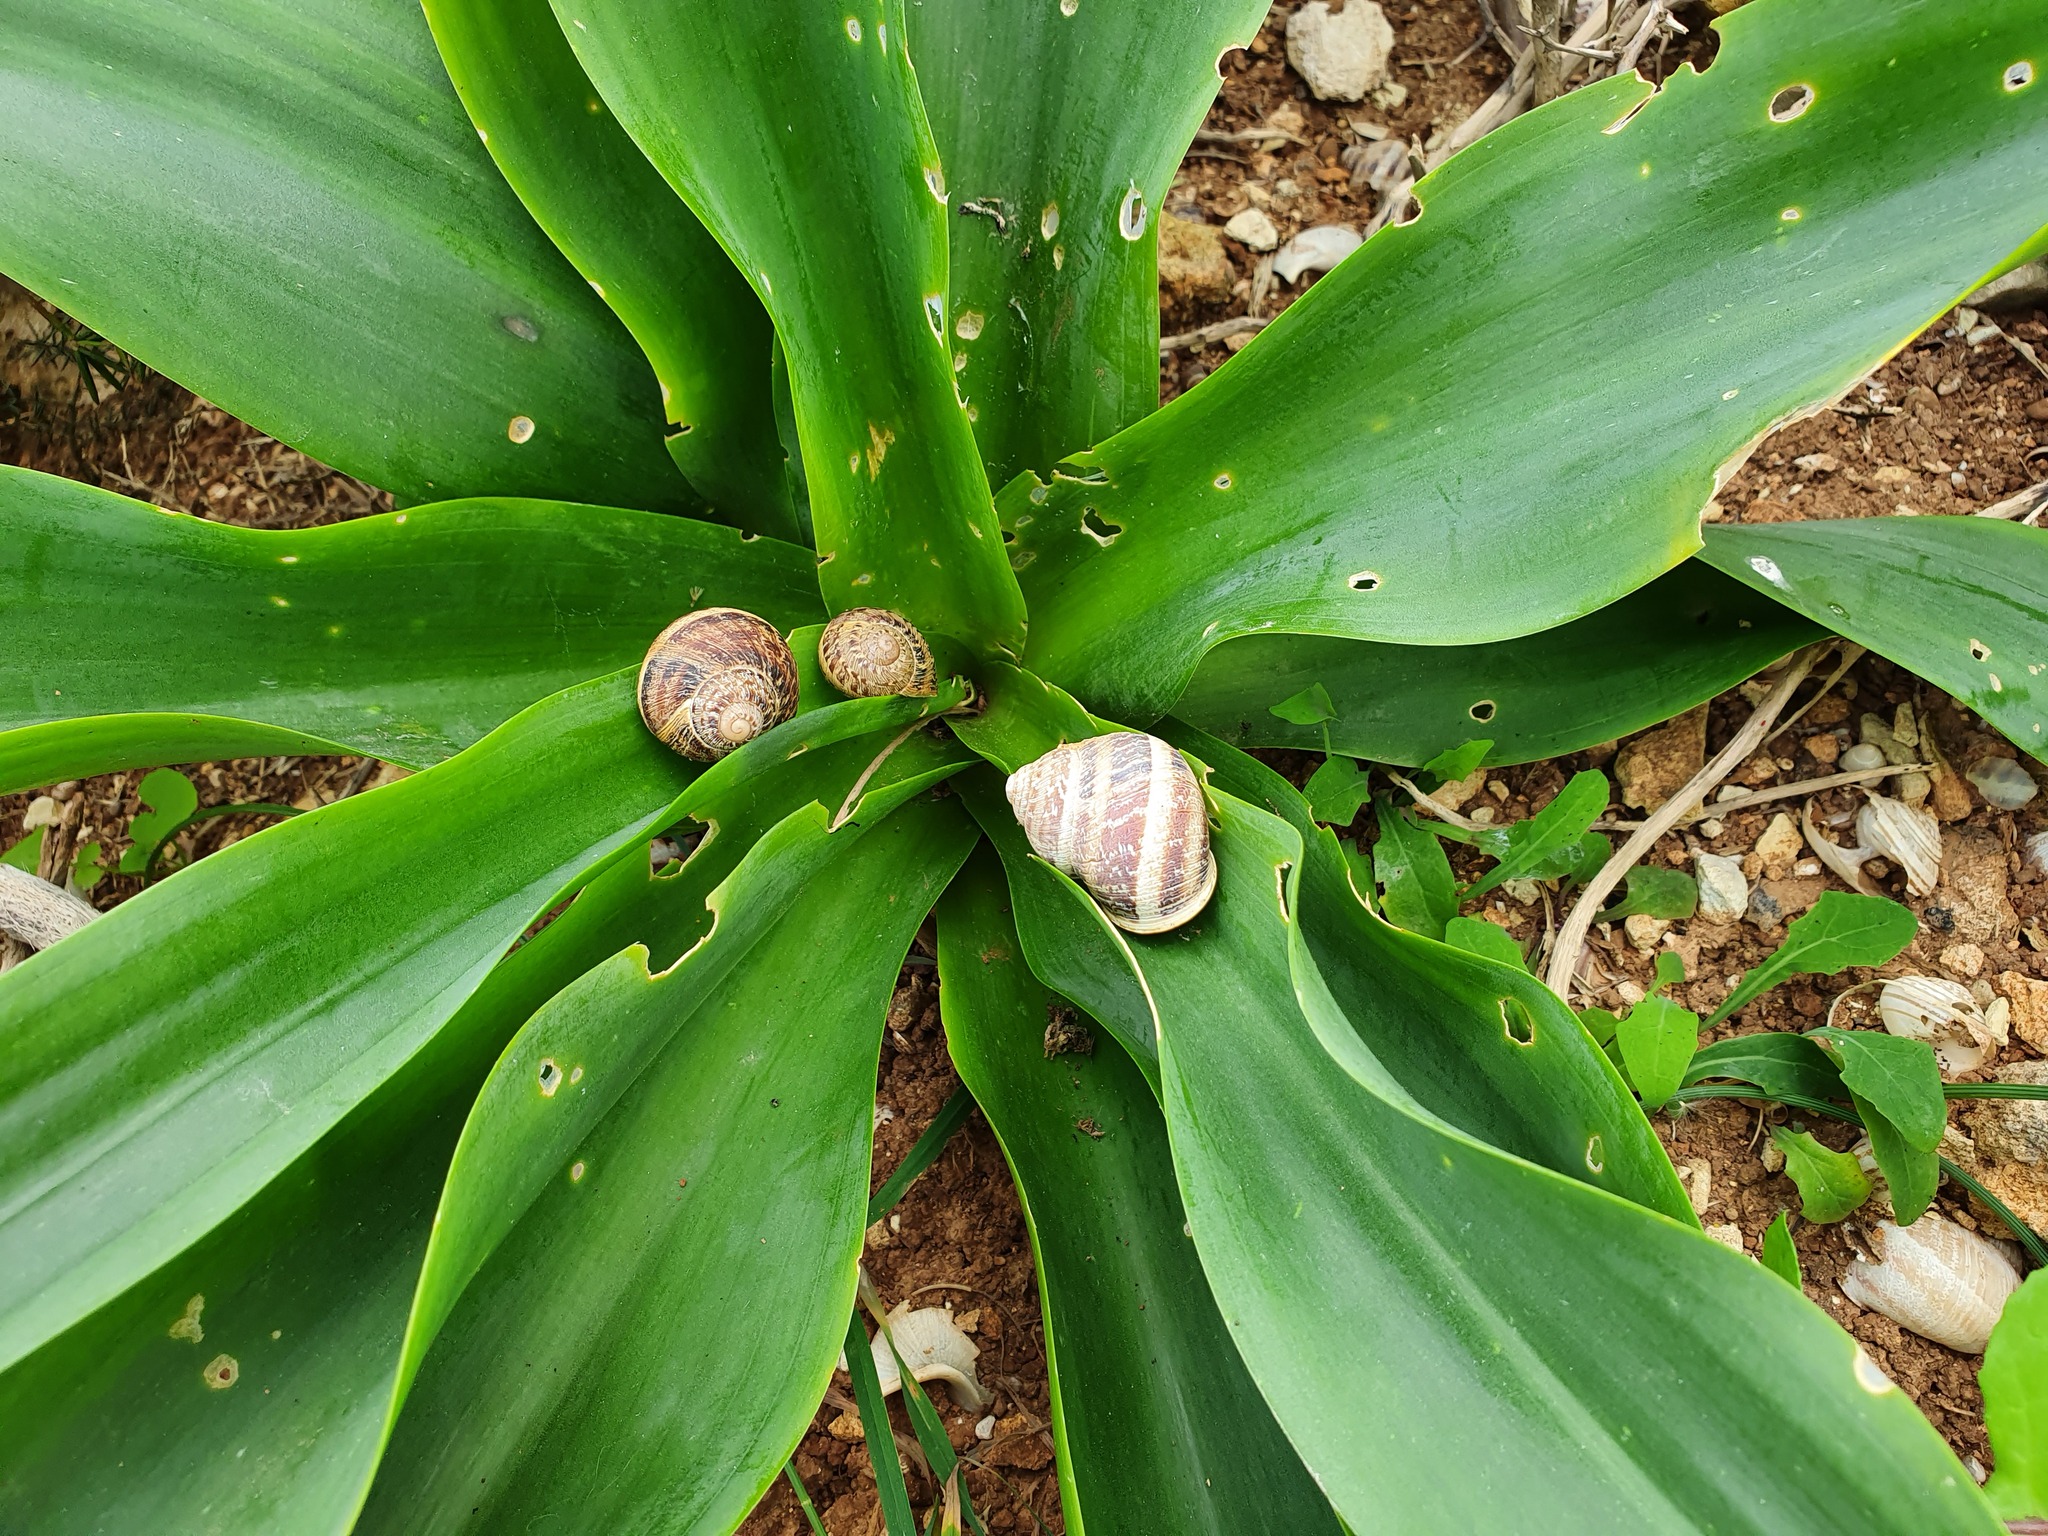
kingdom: Animalia
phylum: Mollusca
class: Gastropoda
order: Stylommatophora
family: Helicidae
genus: Cornu
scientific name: Cornu aspersum
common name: Brown garden snail
